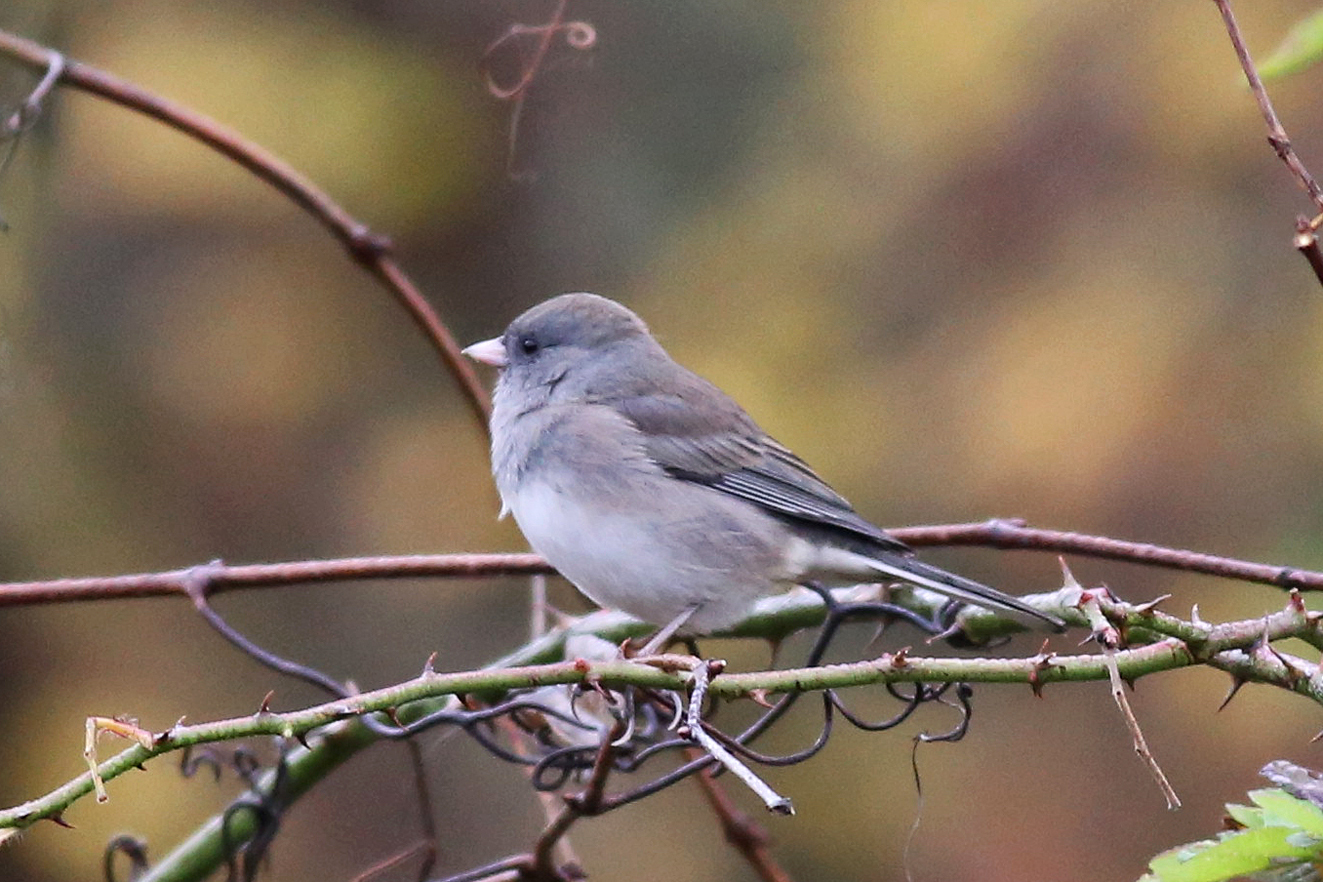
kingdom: Animalia
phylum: Chordata
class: Aves
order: Passeriformes
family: Passerellidae
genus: Junco
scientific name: Junco hyemalis
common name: Dark-eyed junco
